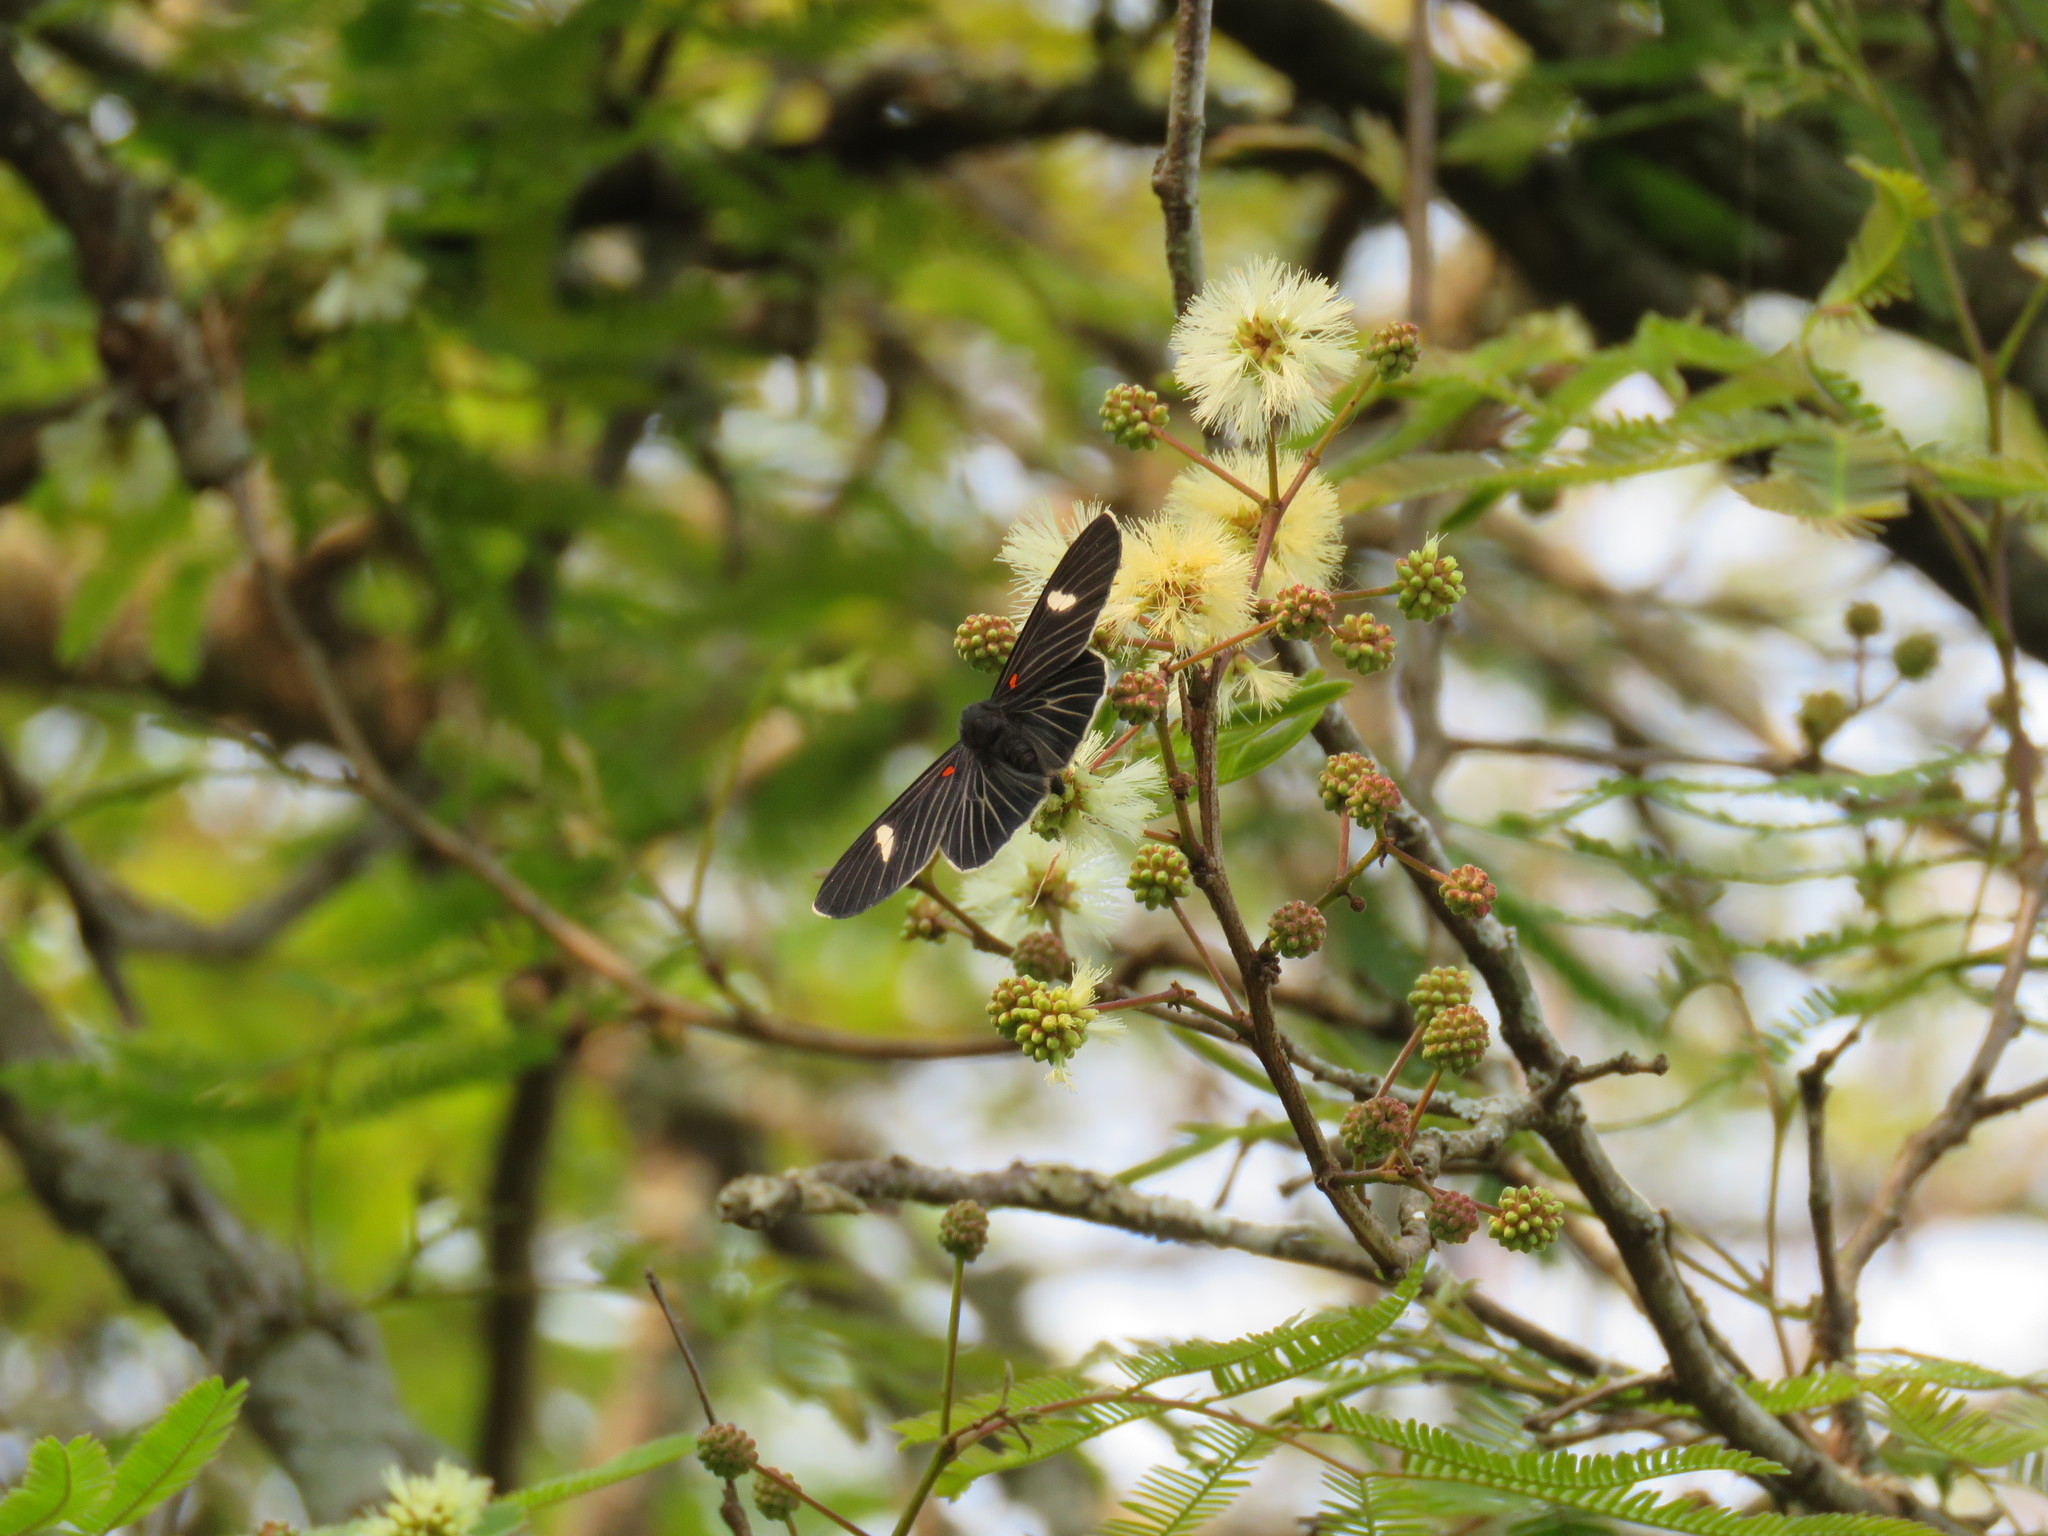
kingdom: Animalia
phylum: Arthropoda
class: Insecta
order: Lepidoptera
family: Lycaenidae
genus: Melanis
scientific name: Melanis aegates
